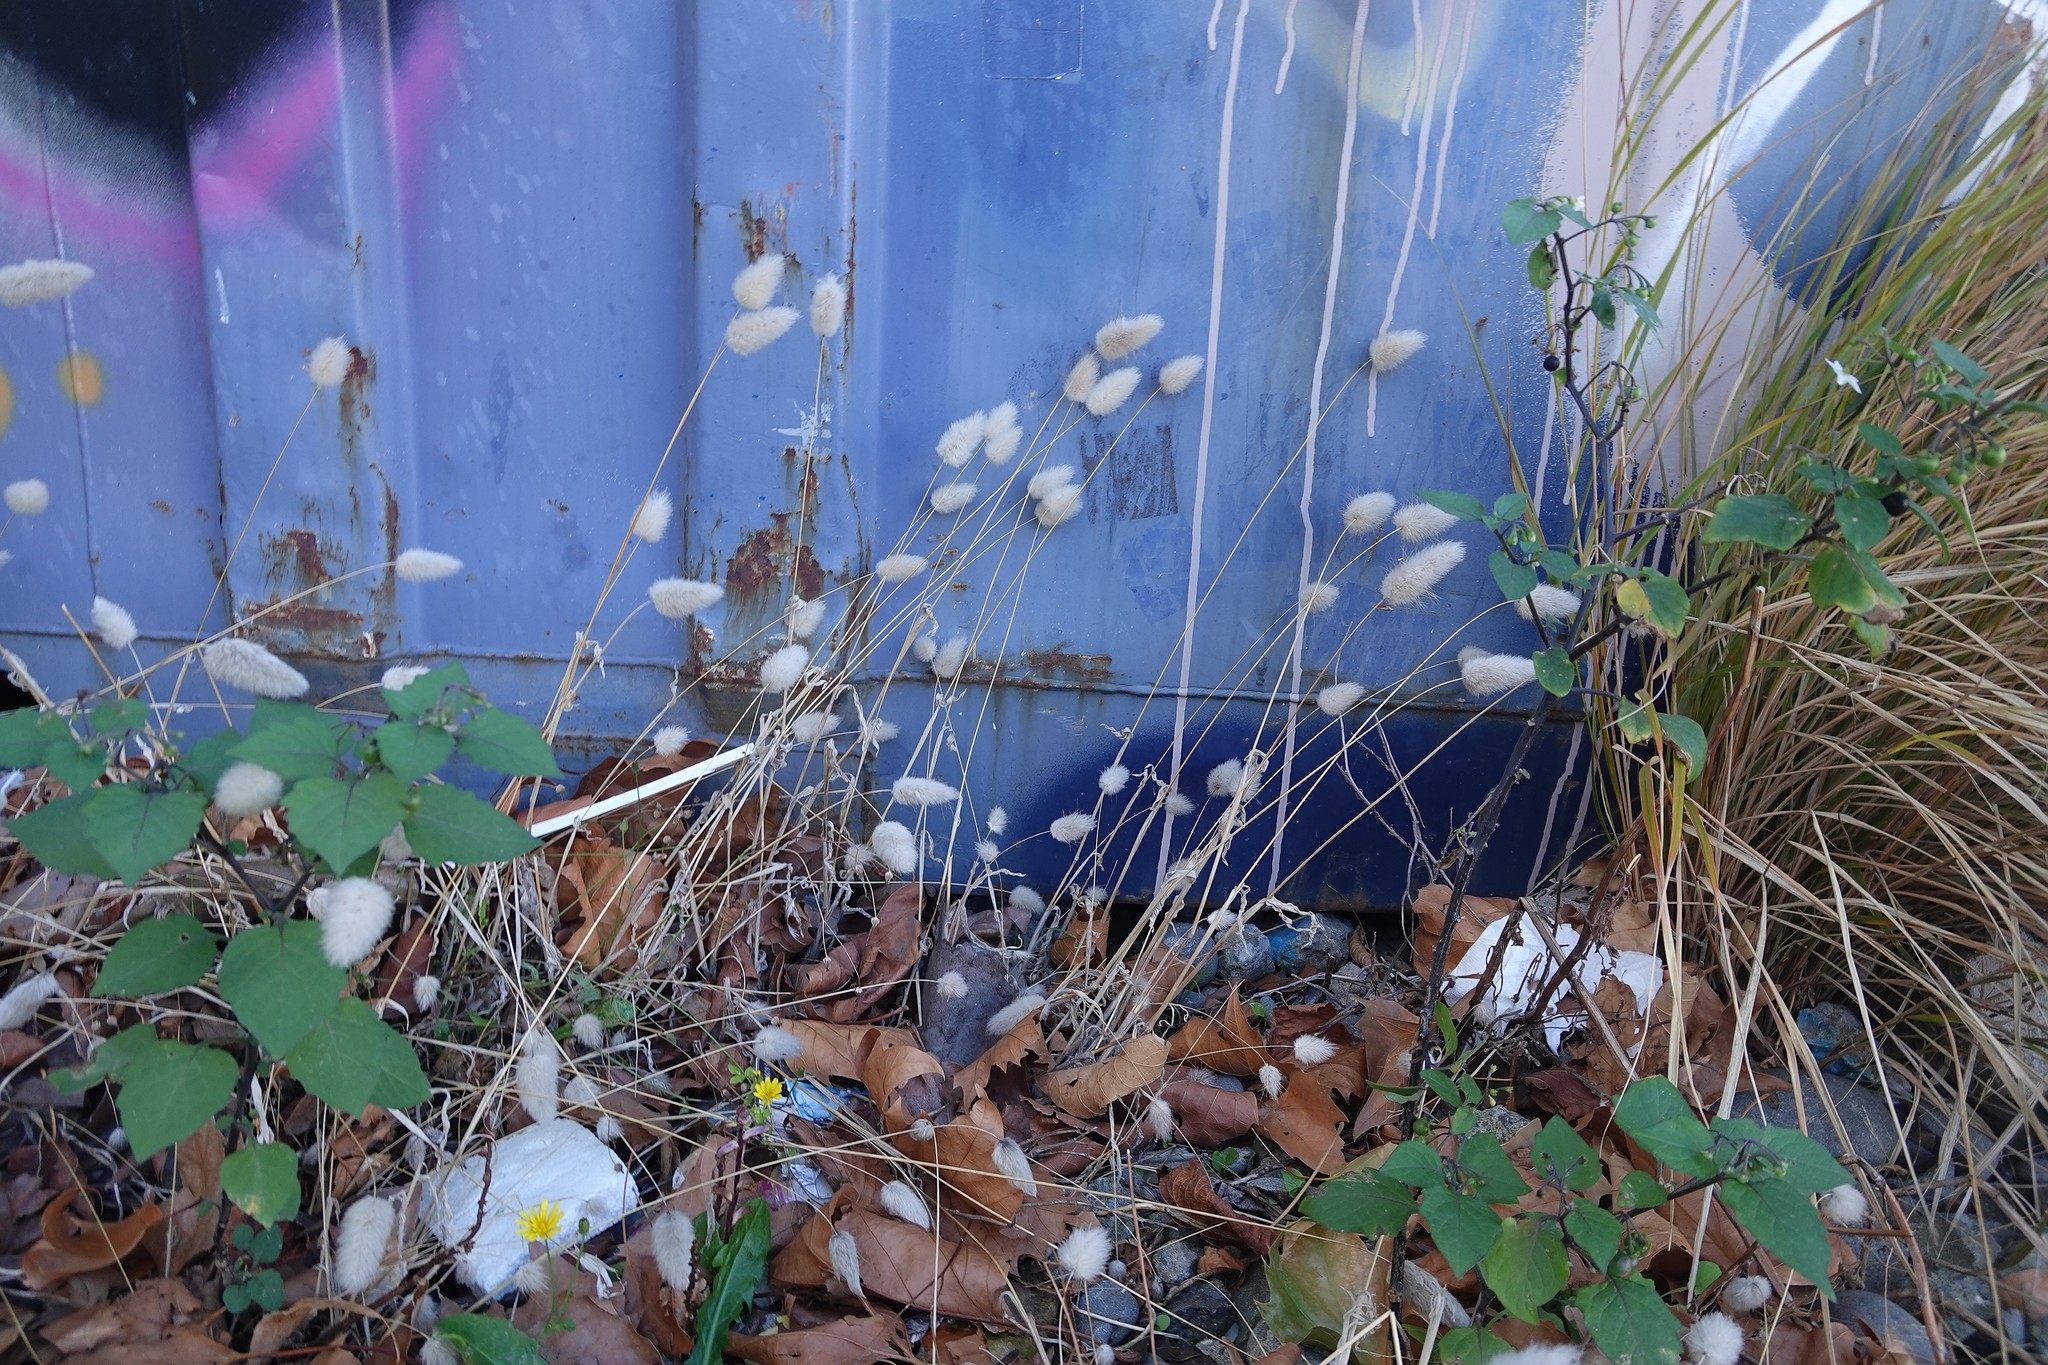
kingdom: Plantae
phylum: Tracheophyta
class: Liliopsida
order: Poales
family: Poaceae
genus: Lagurus
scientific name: Lagurus ovatus
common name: Hare's-tail
